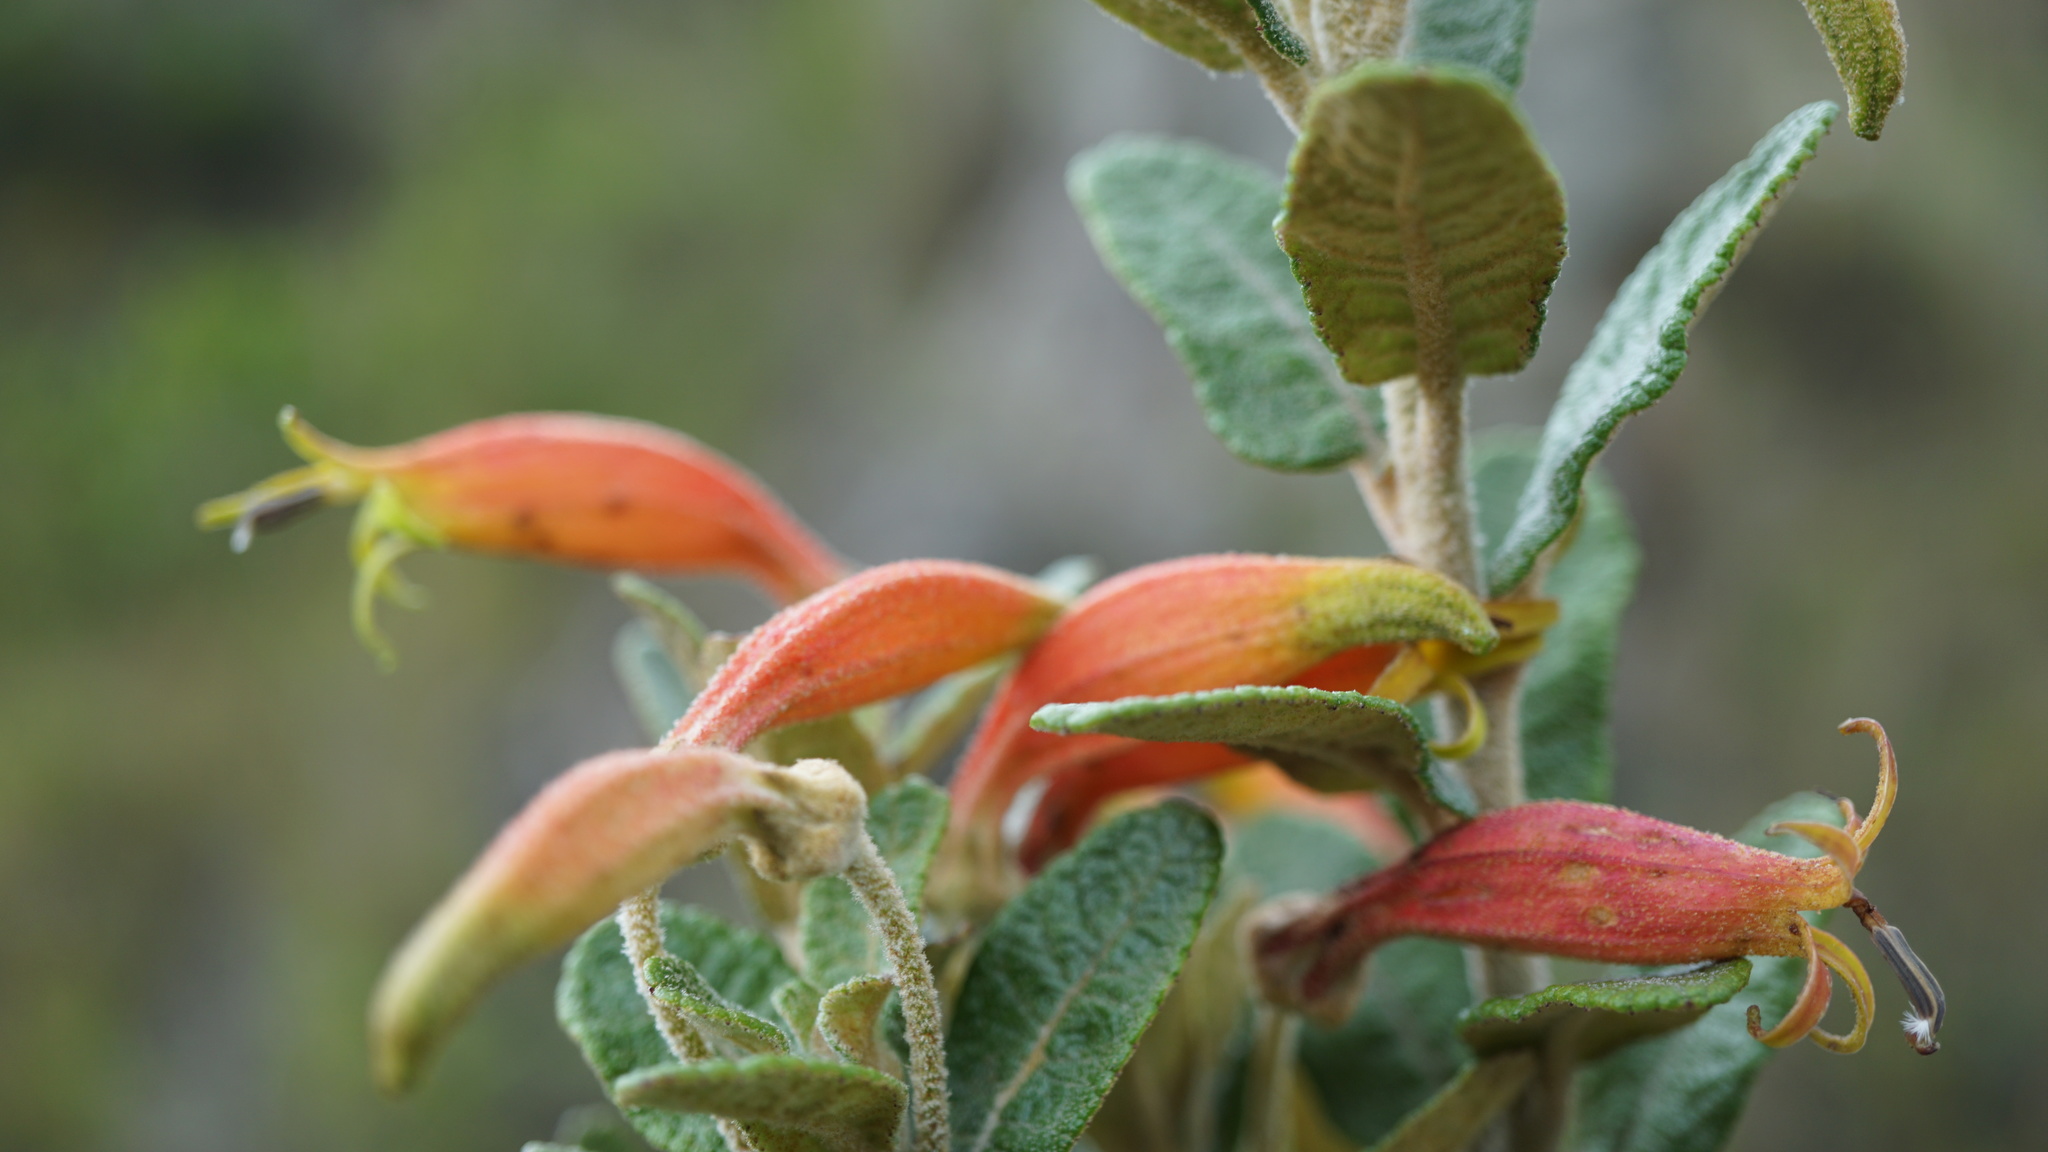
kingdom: Plantae
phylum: Tracheophyta
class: Magnoliopsida
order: Asterales
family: Campanulaceae
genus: Siphocampylus
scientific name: Siphocampylus columnae
